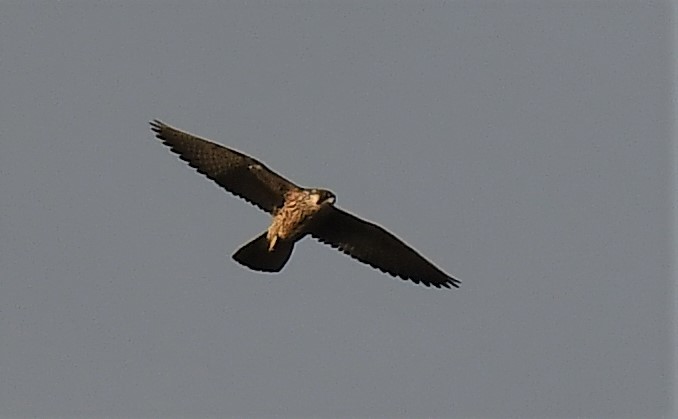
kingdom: Animalia
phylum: Chordata
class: Aves
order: Falconiformes
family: Falconidae
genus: Falco
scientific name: Falco peregrinus
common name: Peregrine falcon
